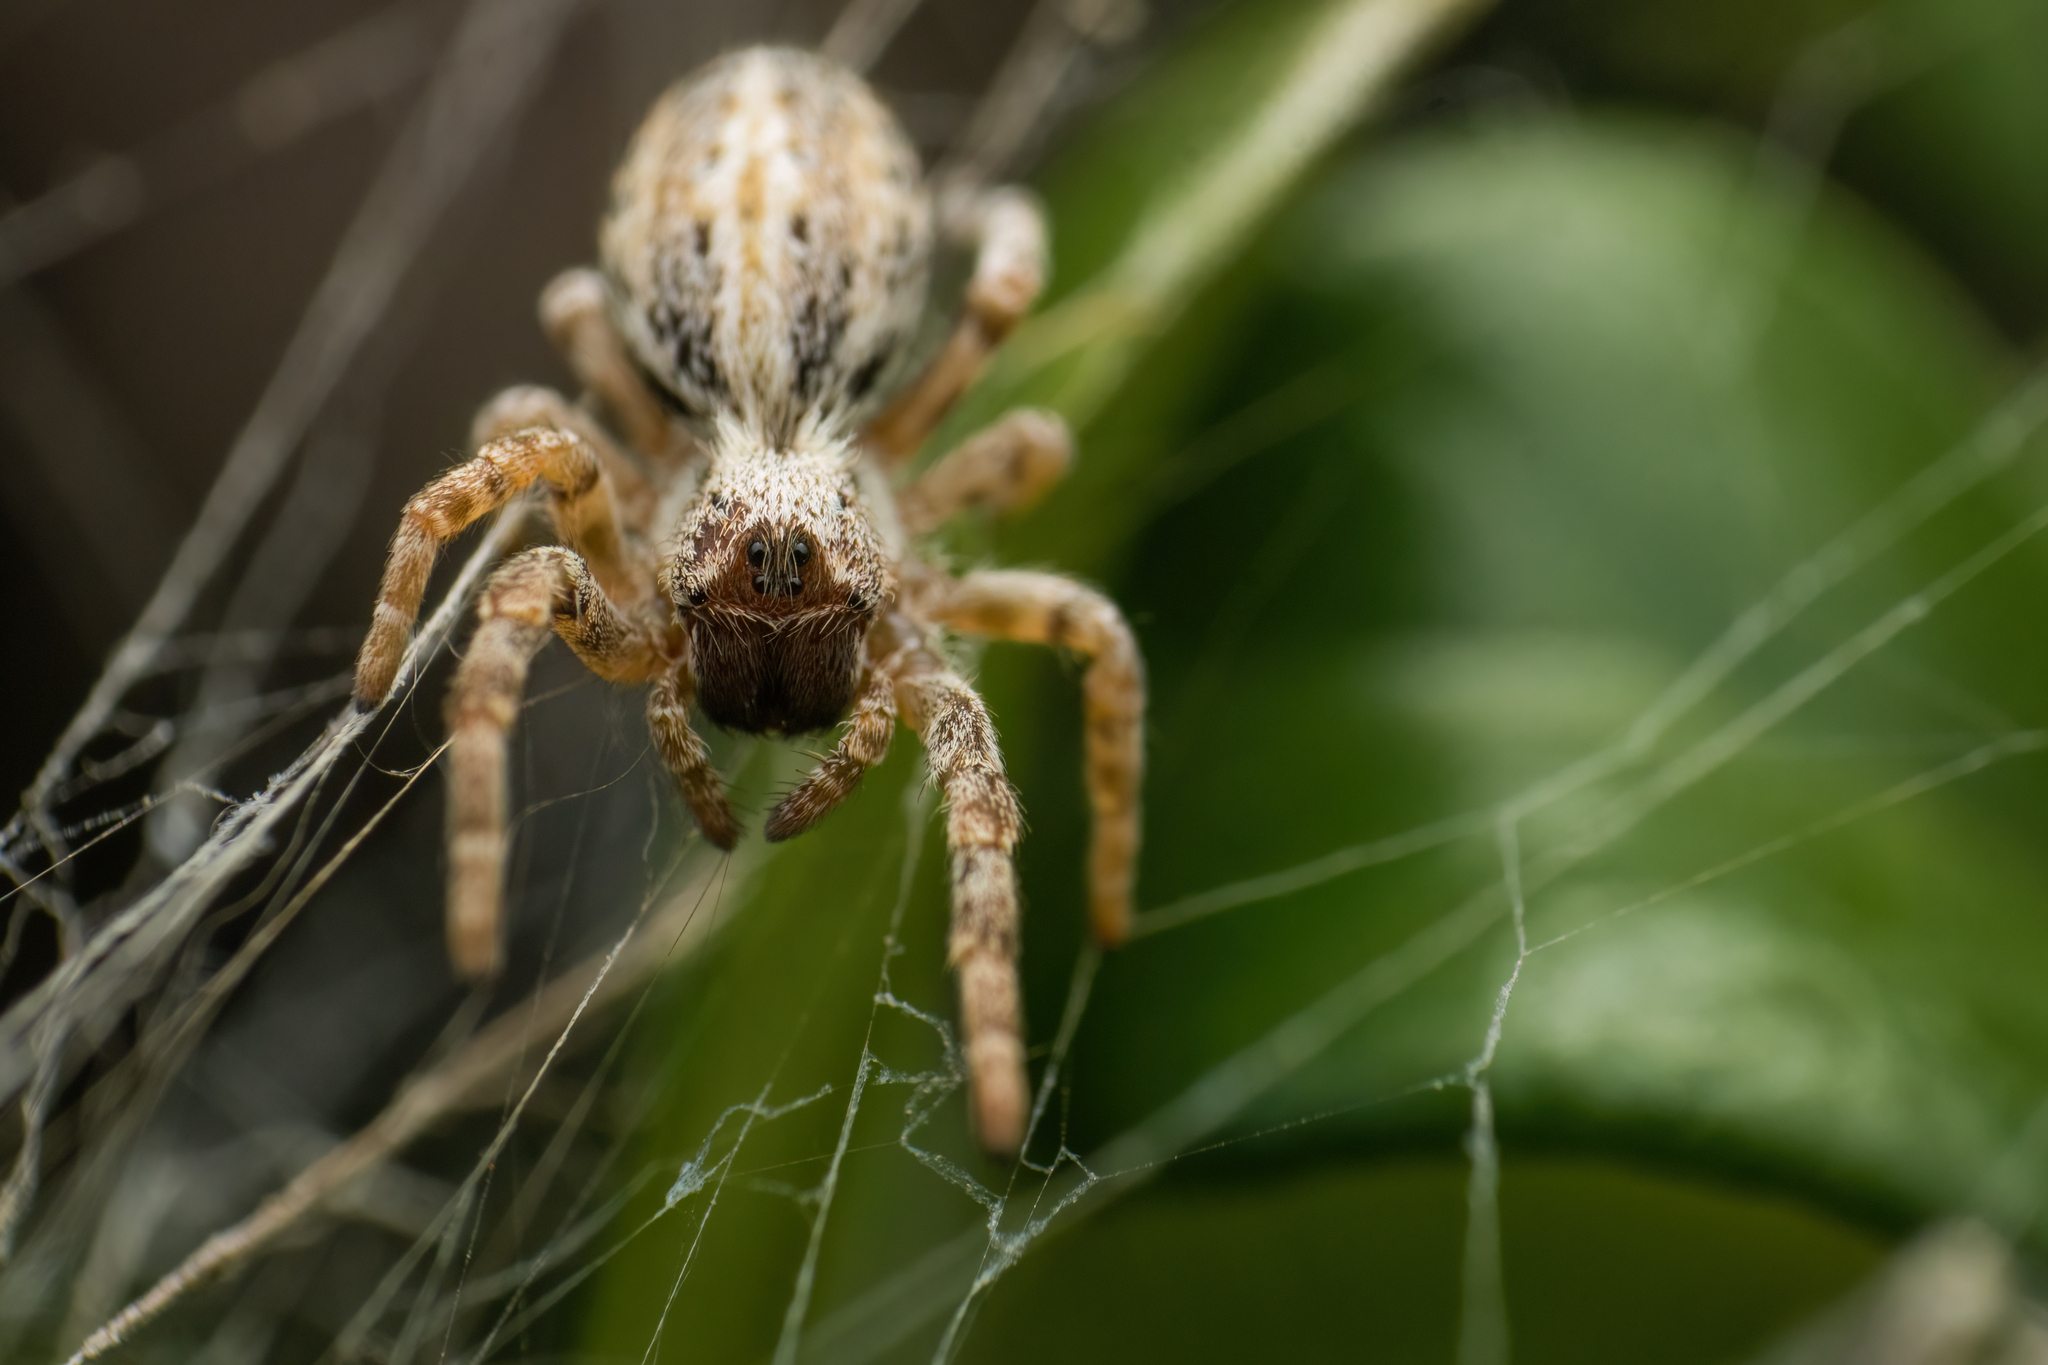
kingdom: Animalia
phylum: Arthropoda
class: Arachnida
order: Araneae
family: Eresidae
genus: Stegodyphus
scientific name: Stegodyphus sarasinorum
